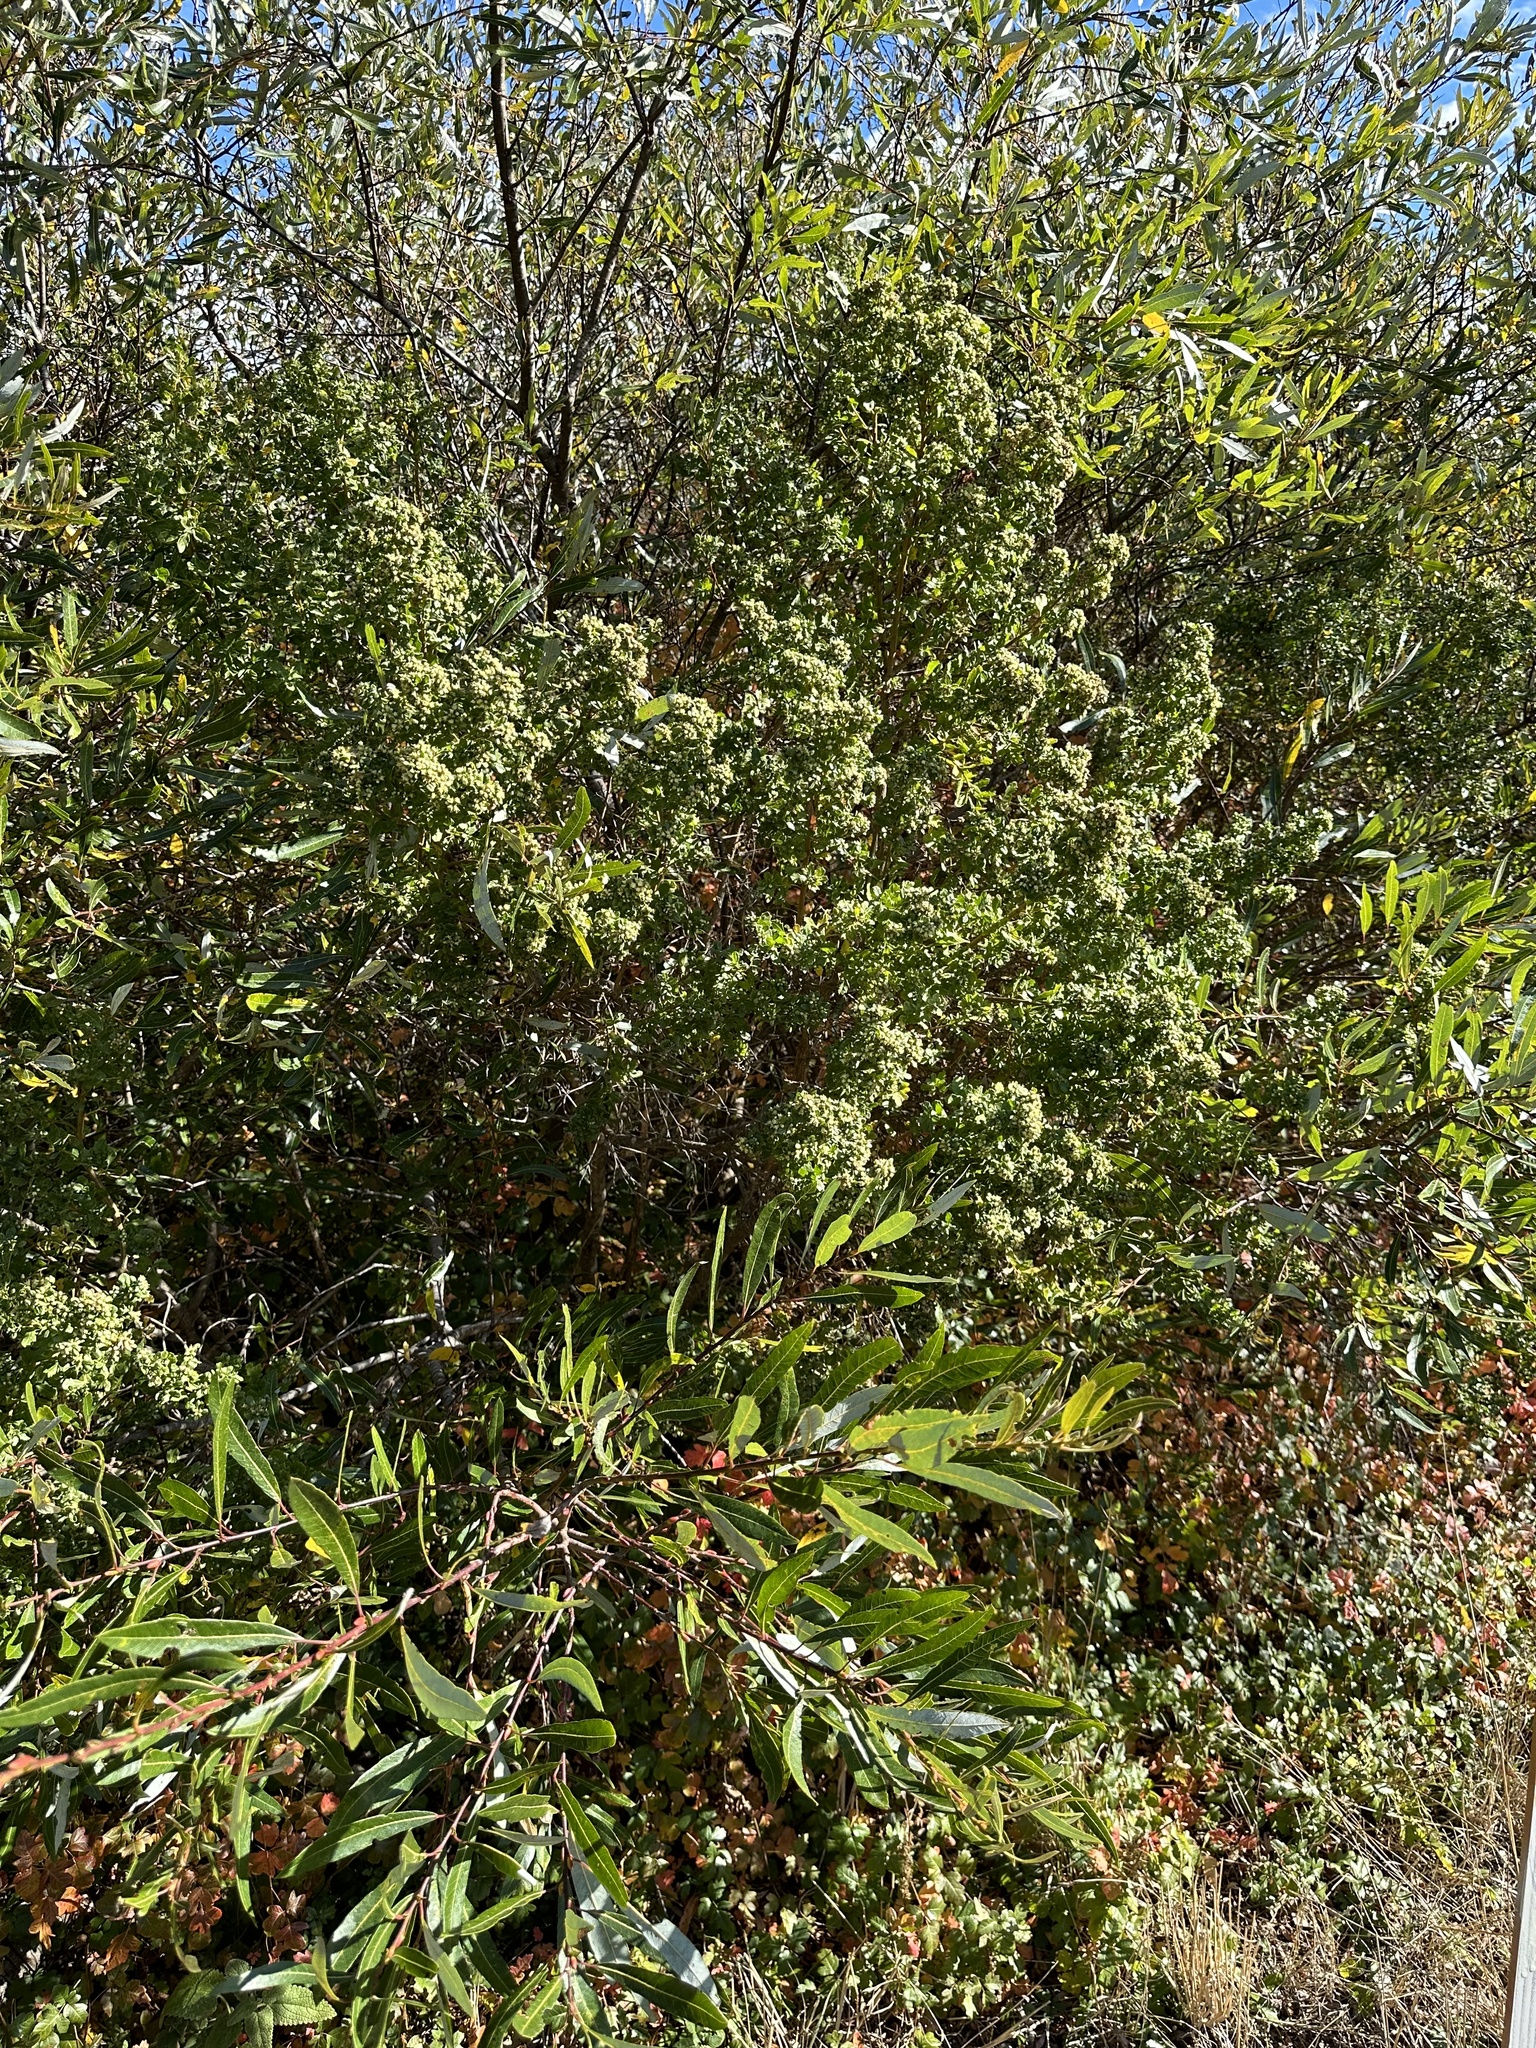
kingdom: Plantae
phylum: Tracheophyta
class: Magnoliopsida
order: Asterales
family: Asteraceae
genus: Baccharis
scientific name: Baccharis pilularis
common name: Coyotebrush
